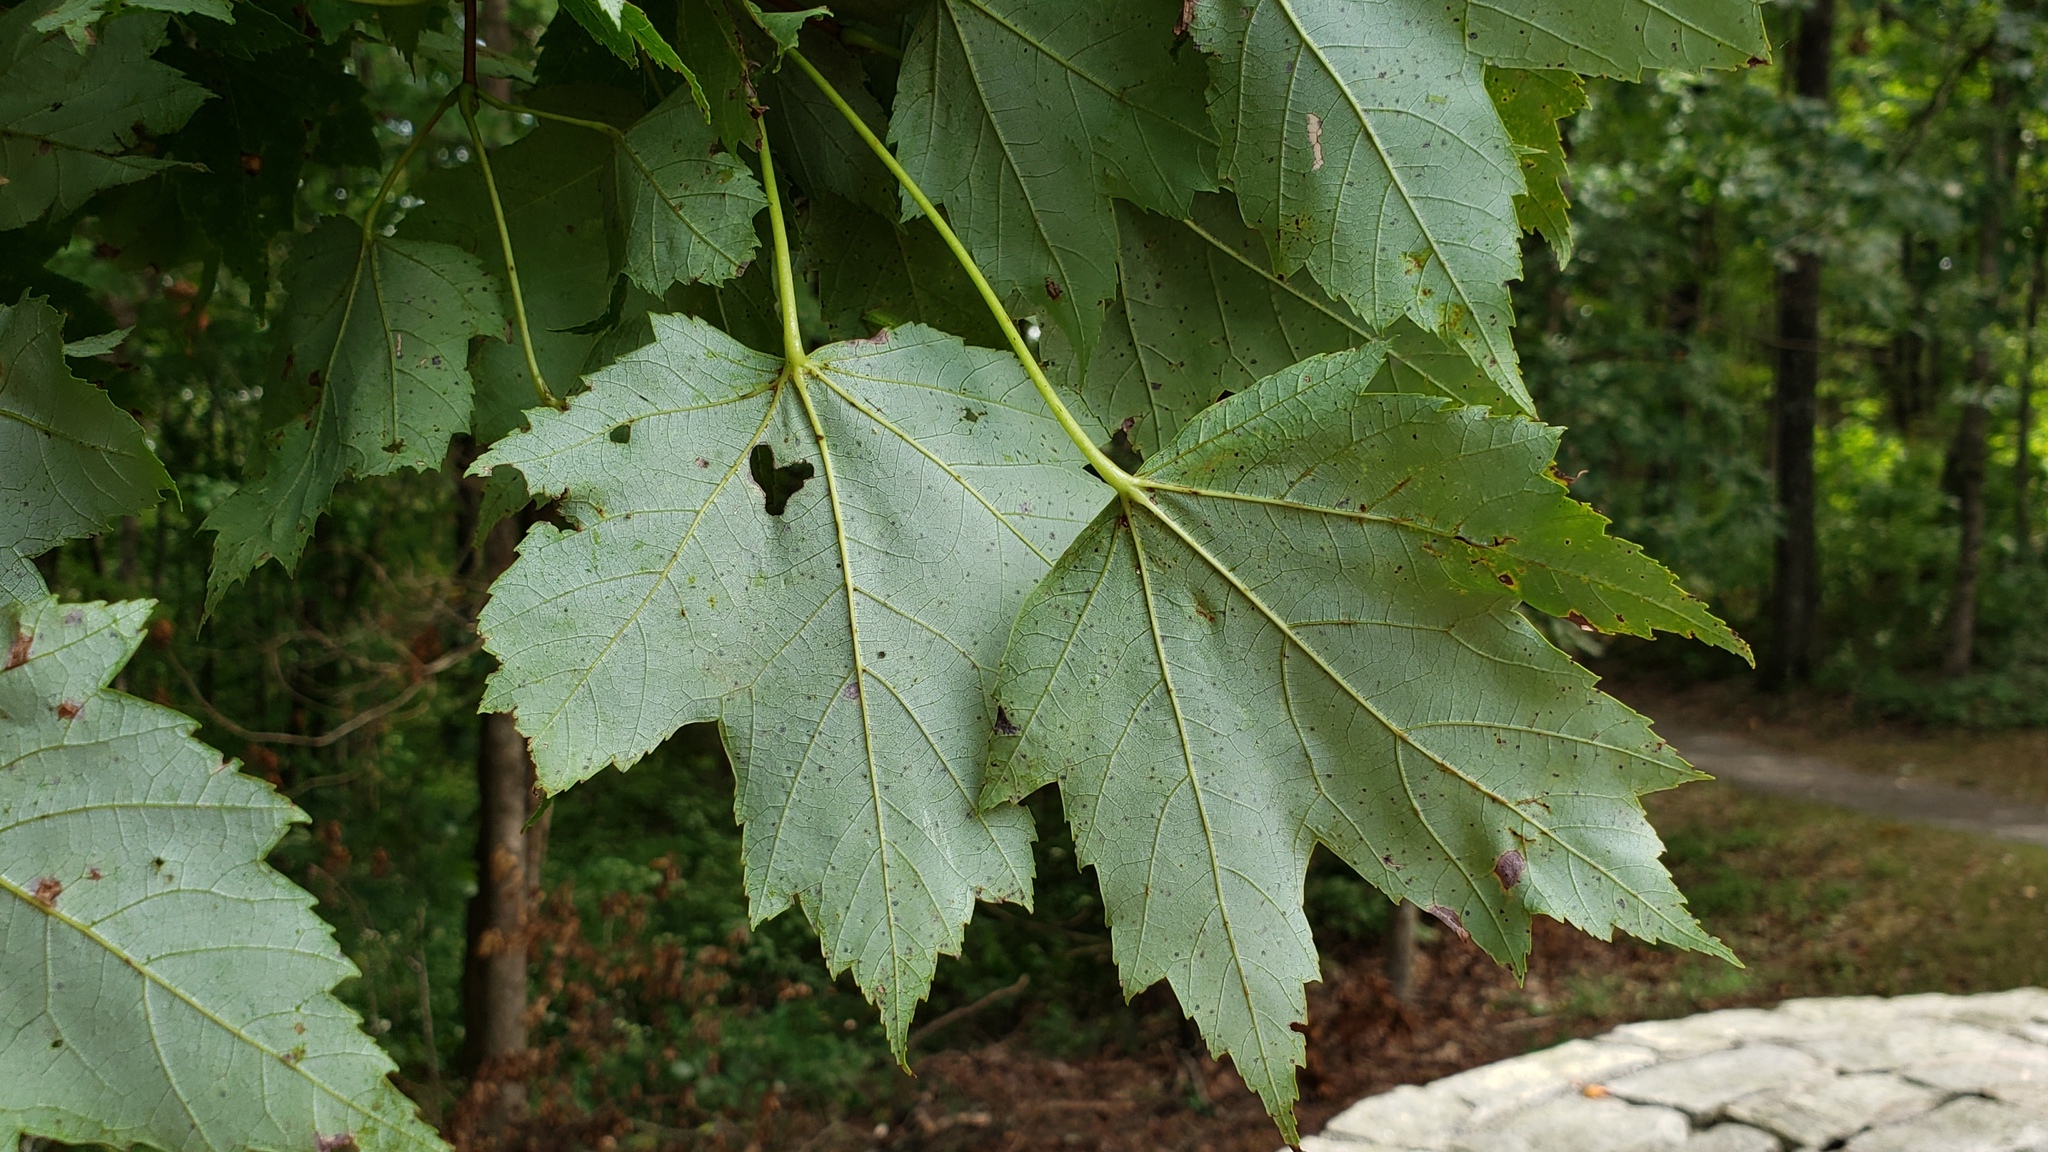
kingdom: Plantae
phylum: Tracheophyta
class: Magnoliopsida
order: Sapindales
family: Sapindaceae
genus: Acer
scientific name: Acer rubrum
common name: Red maple
